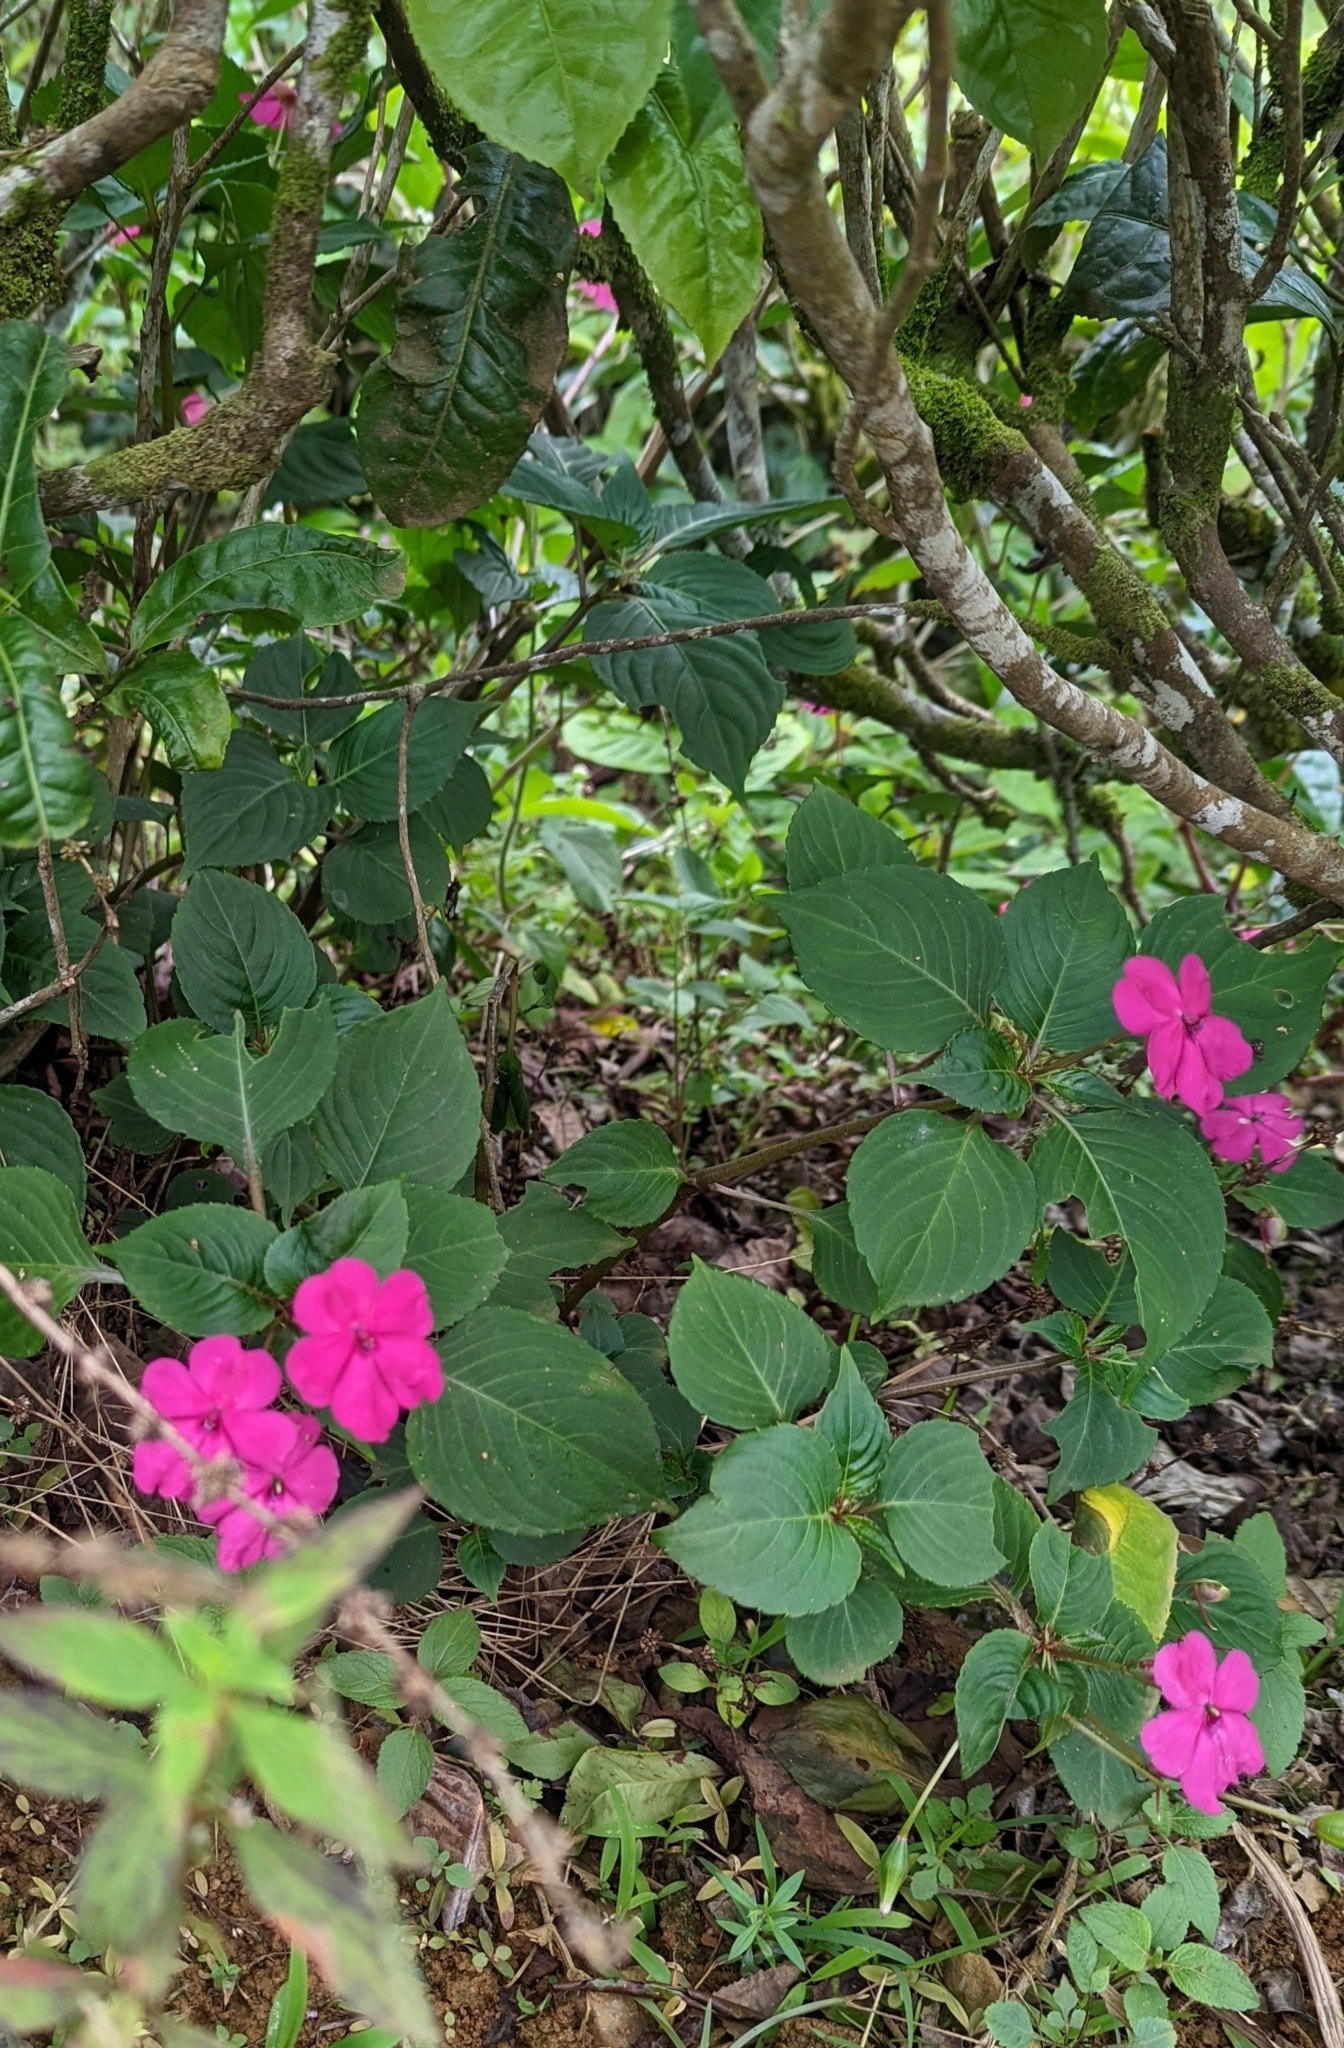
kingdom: Plantae
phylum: Tracheophyta
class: Magnoliopsida
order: Ericales
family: Balsaminaceae
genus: Impatiens
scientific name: Impatiens walleriana
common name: Buzzy lizzy
